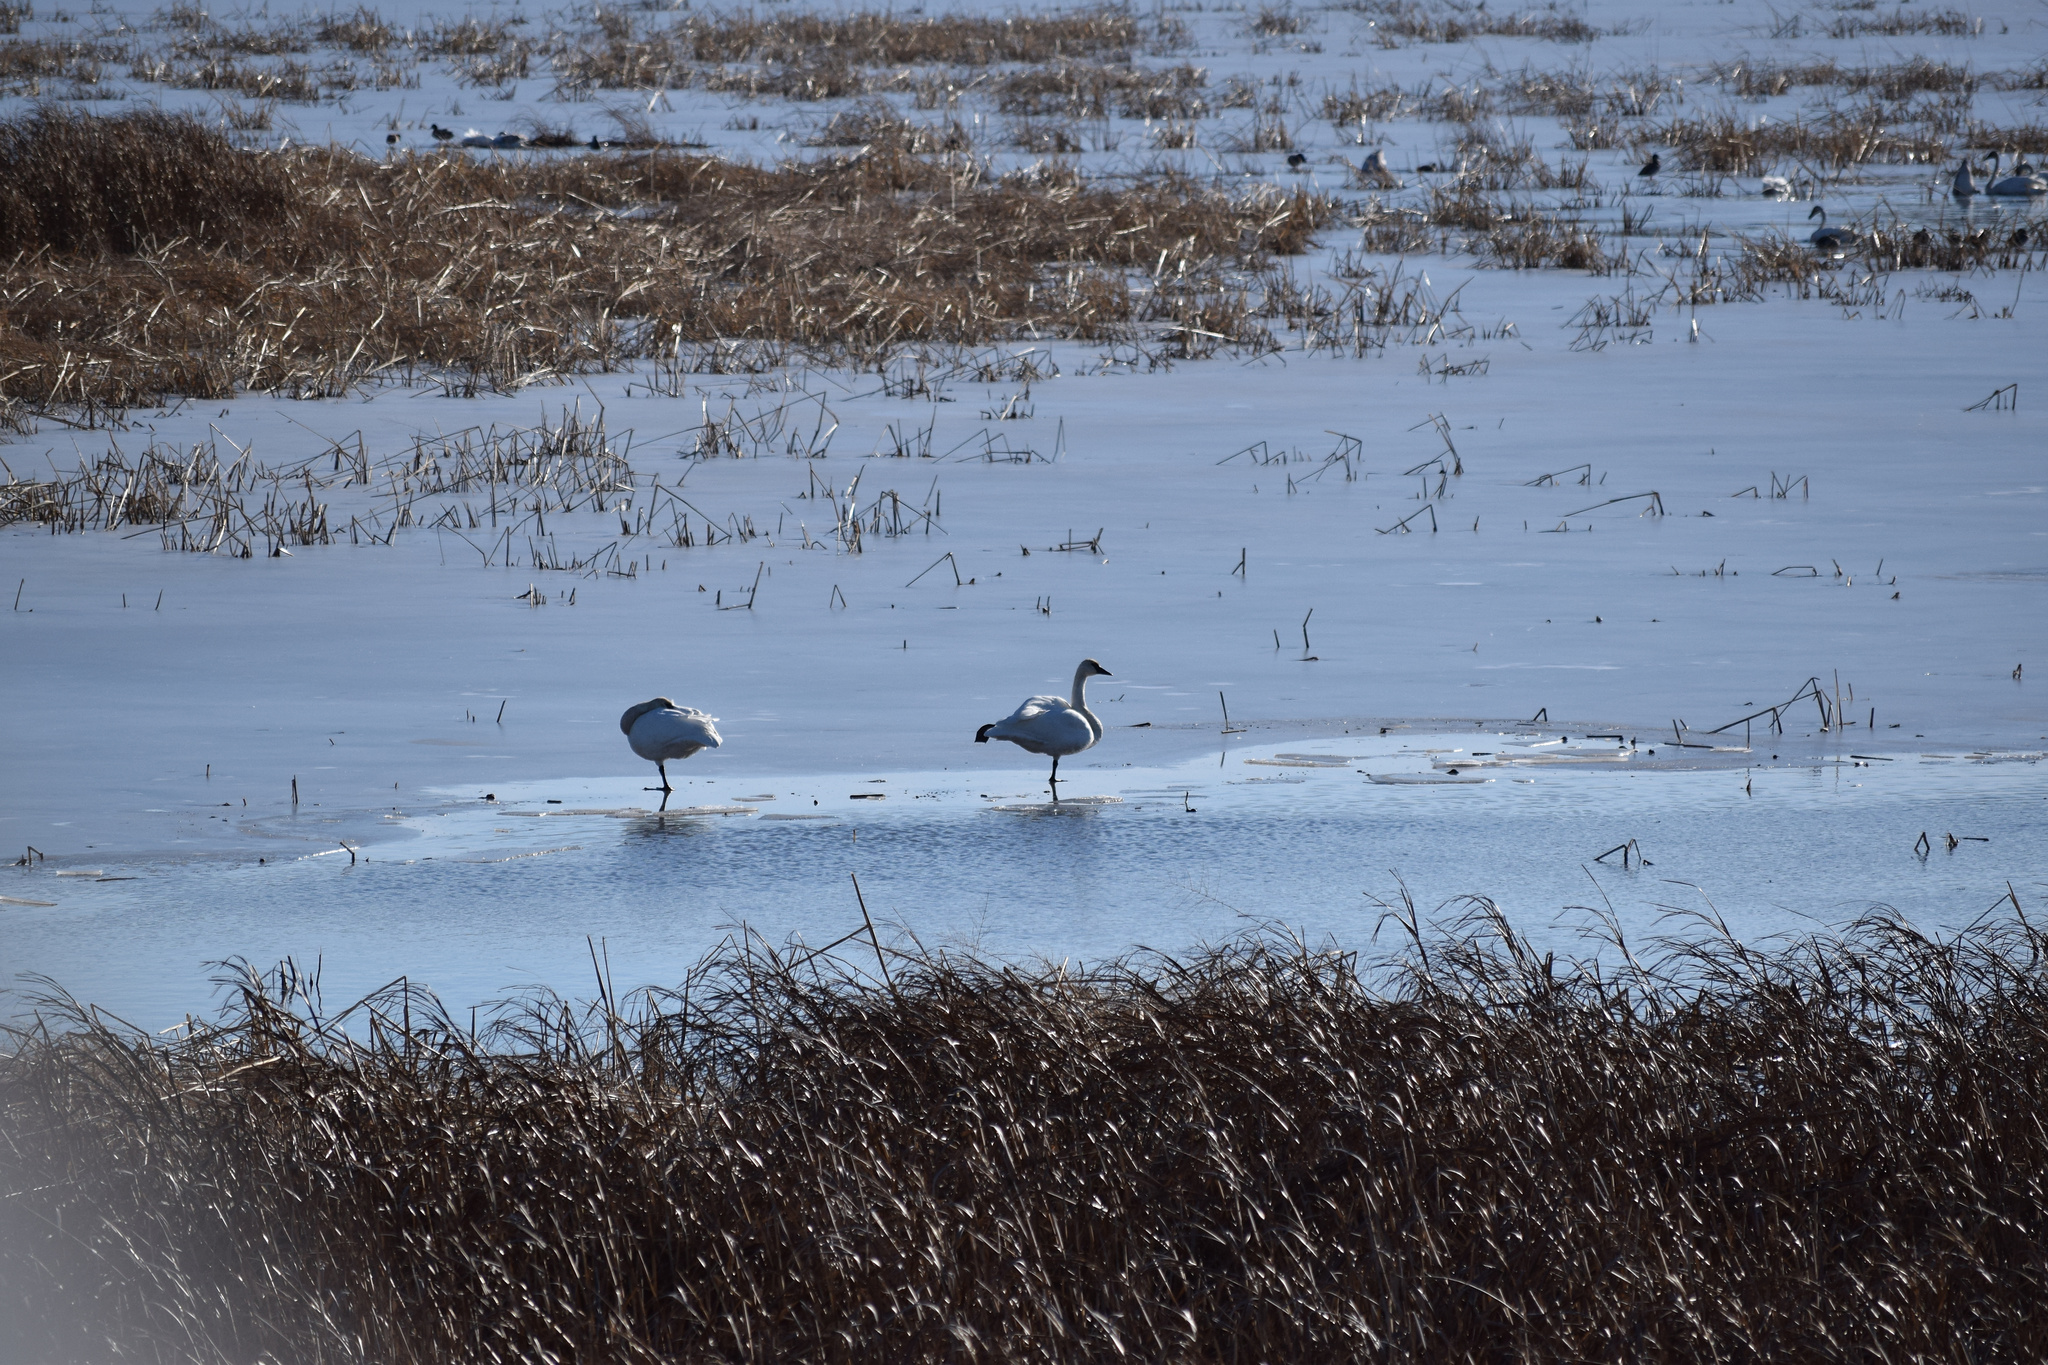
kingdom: Animalia
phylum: Chordata
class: Aves
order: Anseriformes
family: Anatidae
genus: Cygnus
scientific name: Cygnus buccinator
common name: Trumpeter swan
